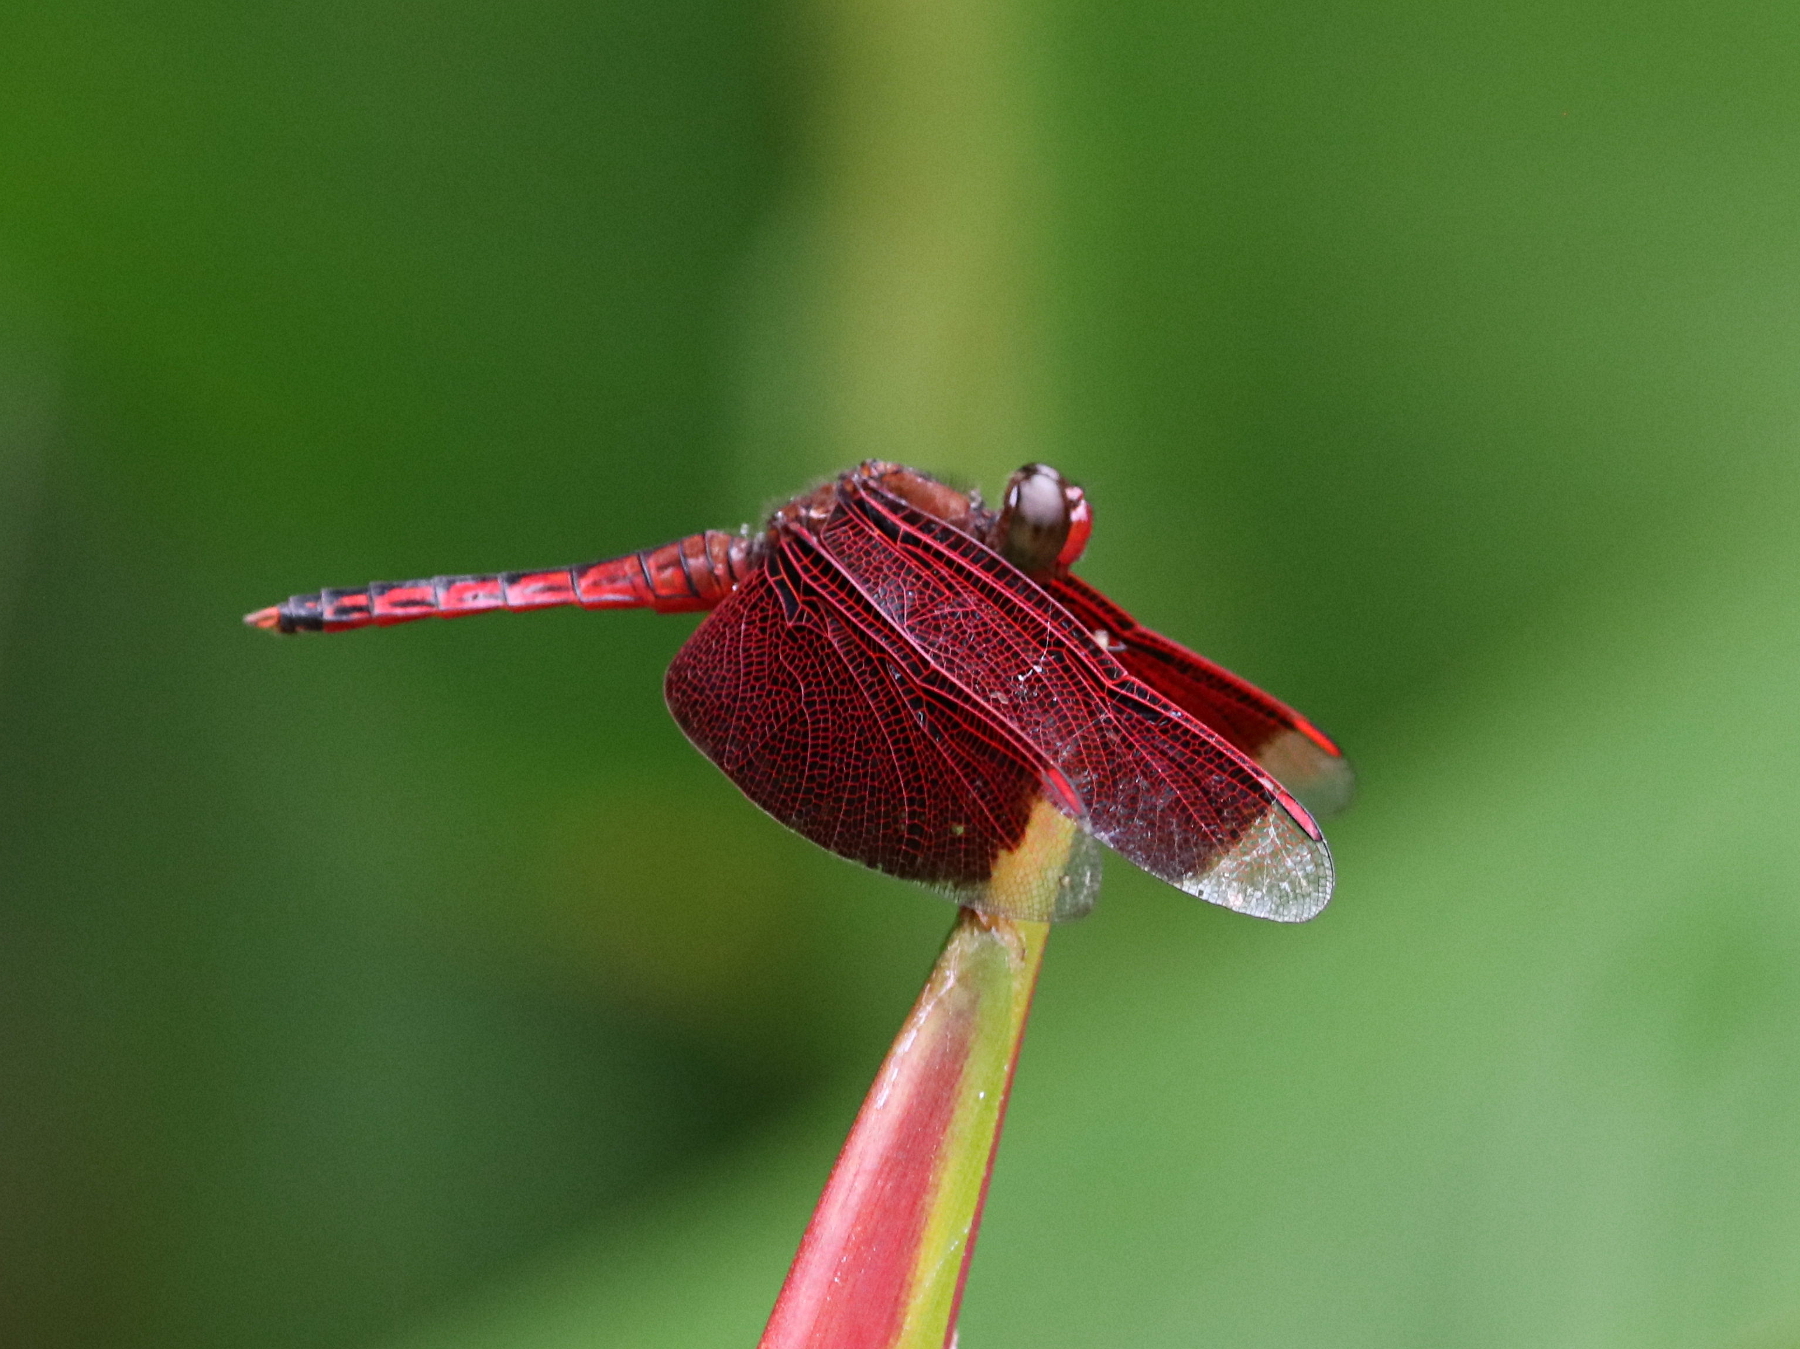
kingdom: Animalia
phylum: Arthropoda
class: Insecta
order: Odonata
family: Libellulidae
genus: Neurothemis
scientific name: Neurothemis terminata
